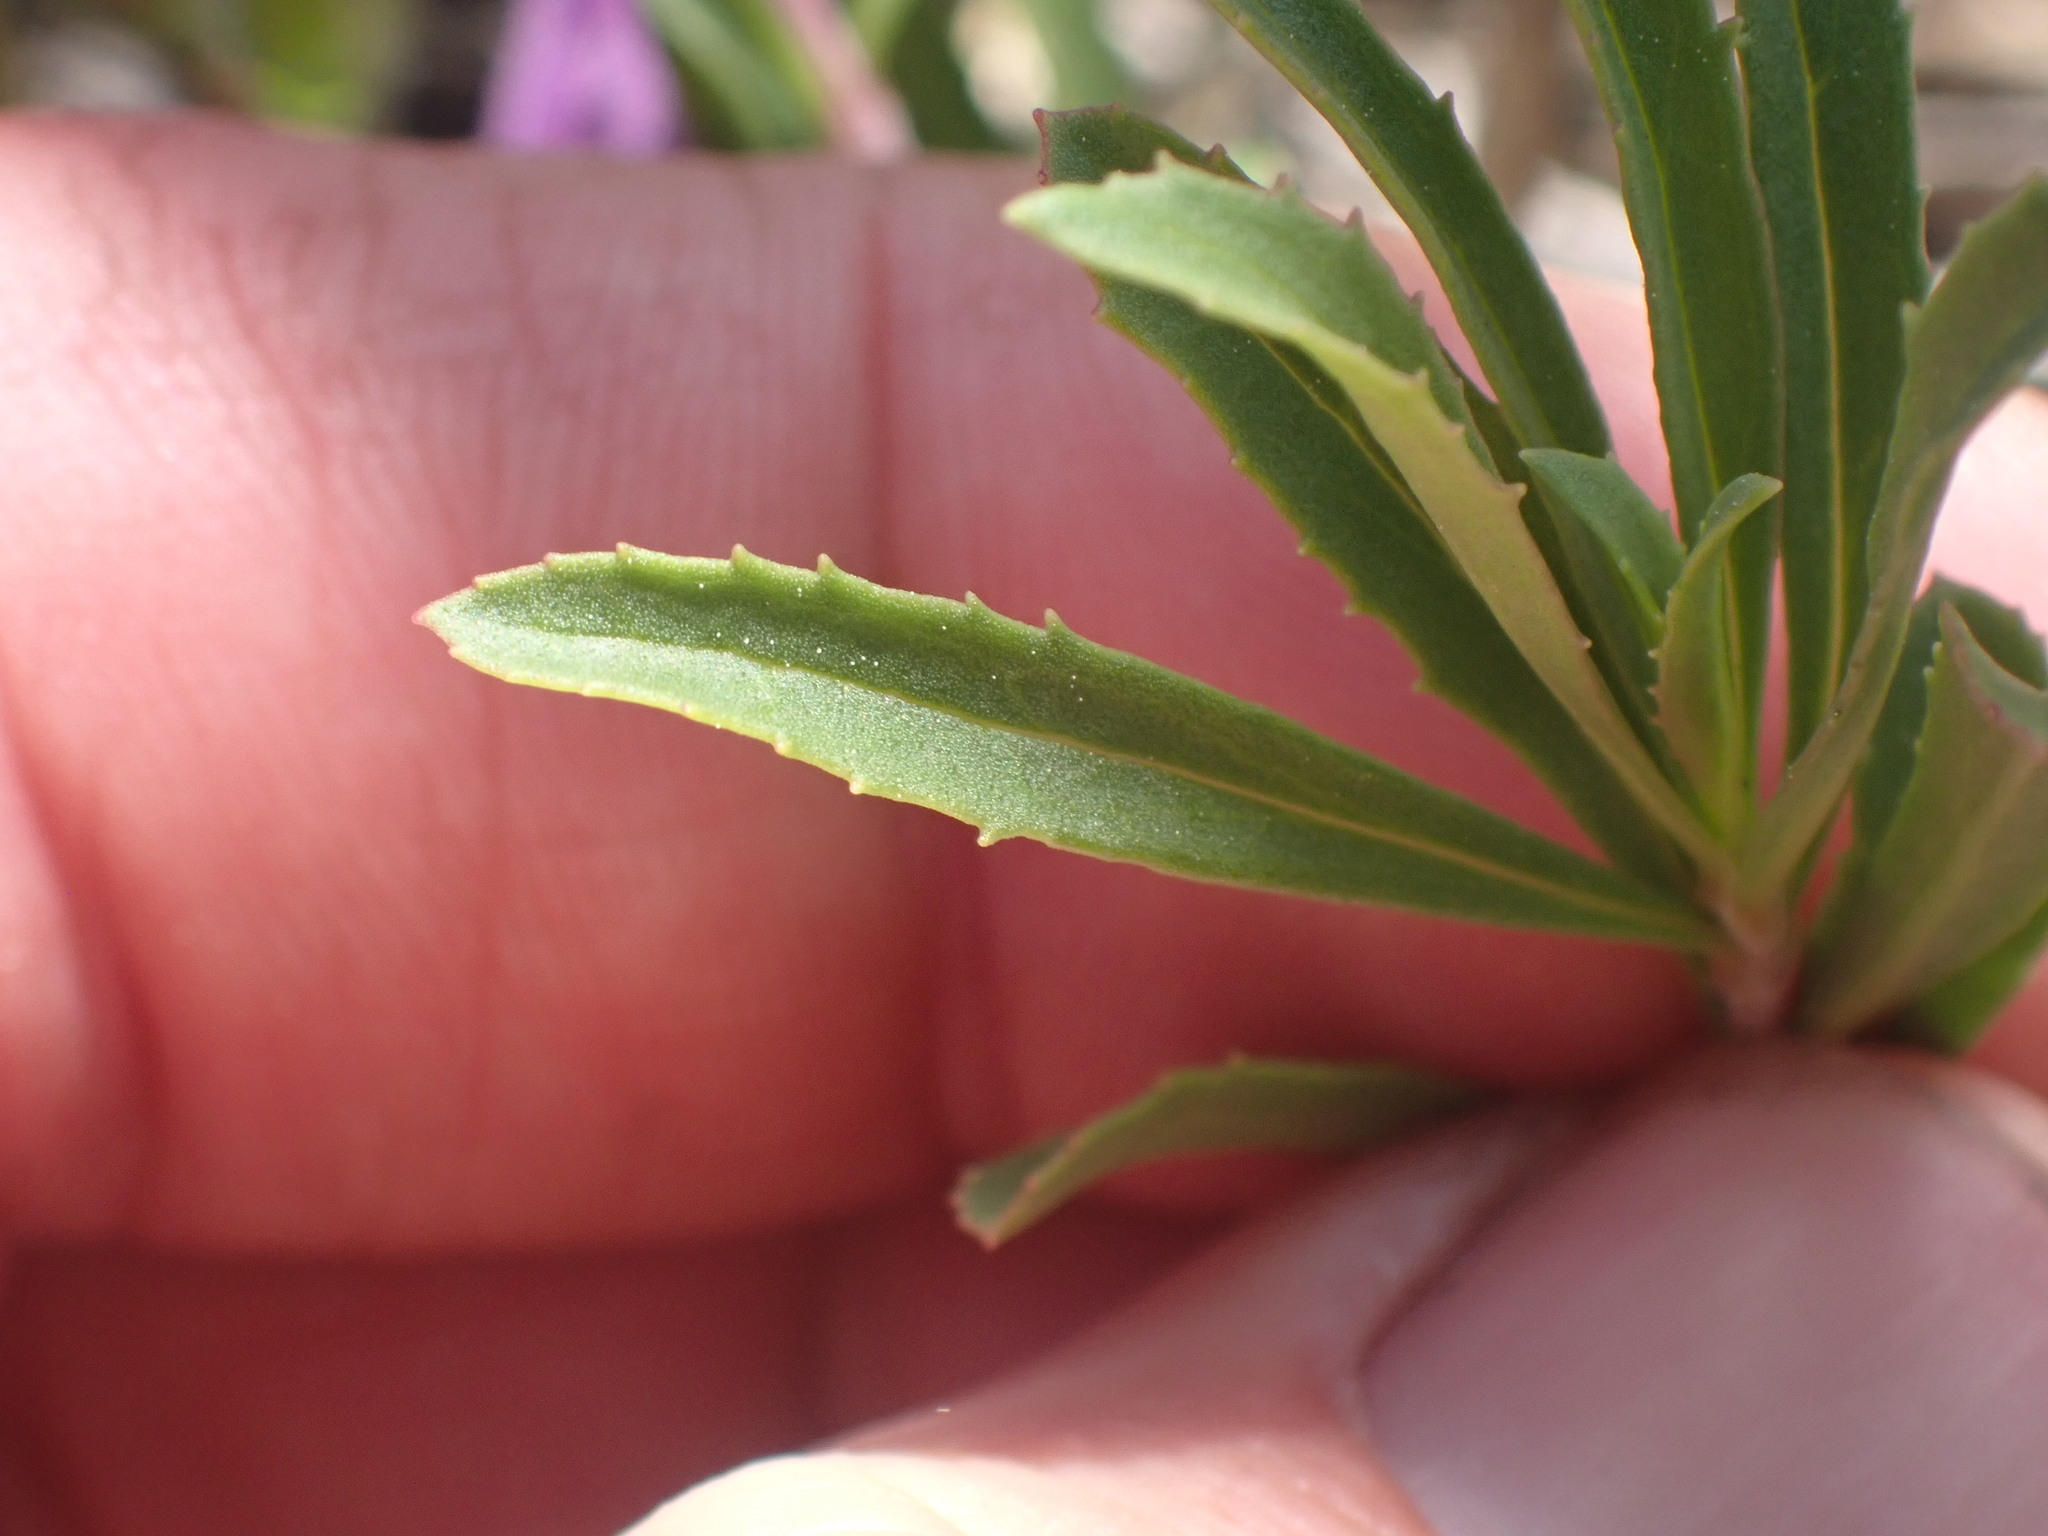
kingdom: Plantae
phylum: Tracheophyta
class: Magnoliopsida
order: Lamiales
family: Plantaginaceae
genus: Penstemon
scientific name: Penstemon fruticosus
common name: Bush penstemon
